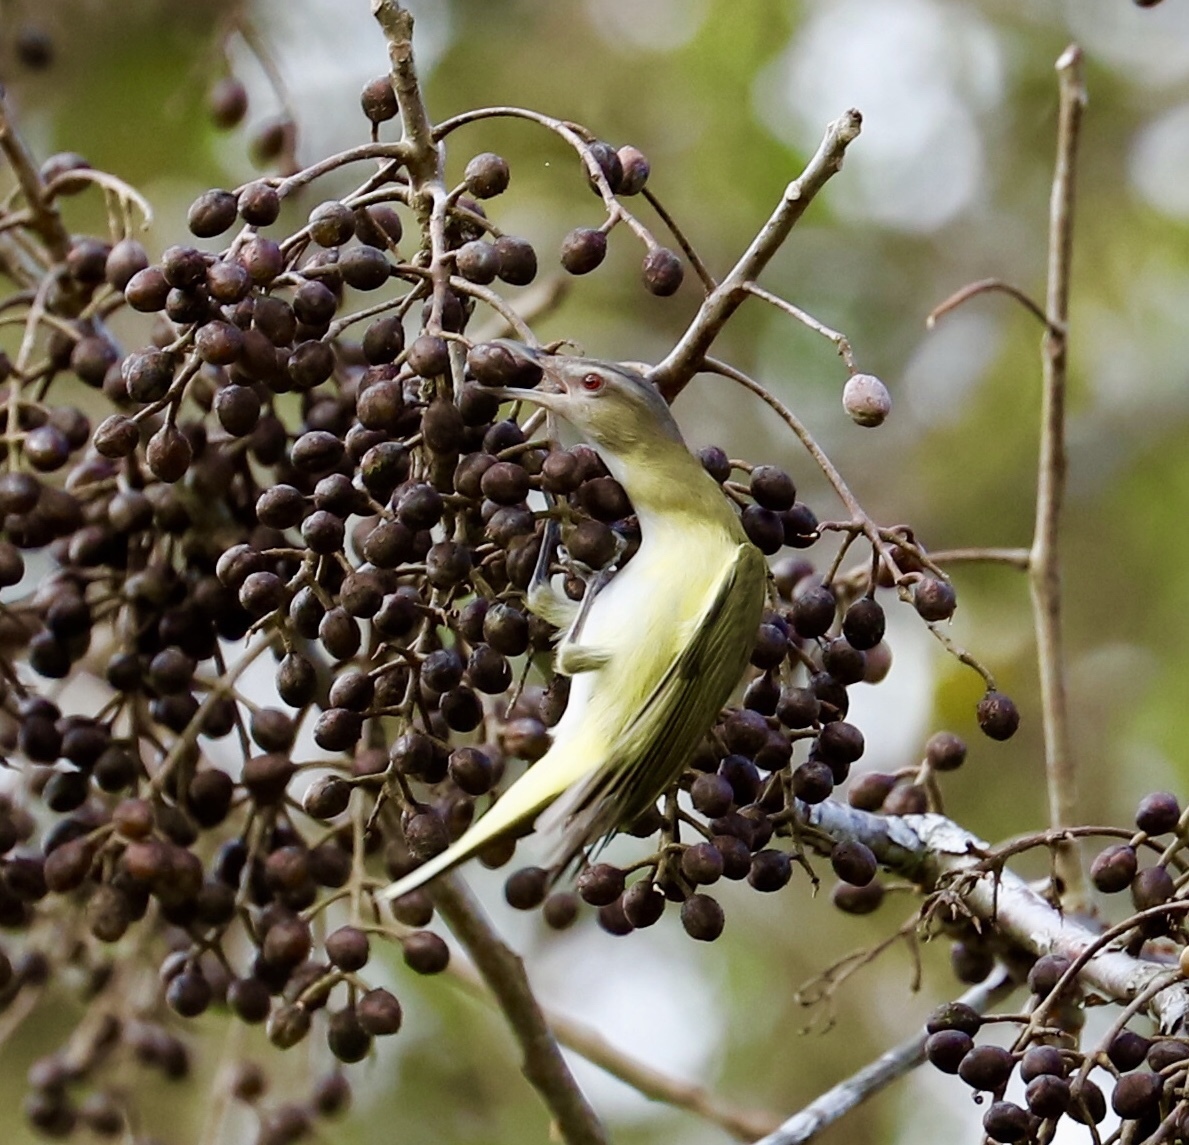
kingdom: Animalia
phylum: Chordata
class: Aves
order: Passeriformes
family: Vireonidae
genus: Vireo
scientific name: Vireo flavoviridis
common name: Yellow-green vireo
